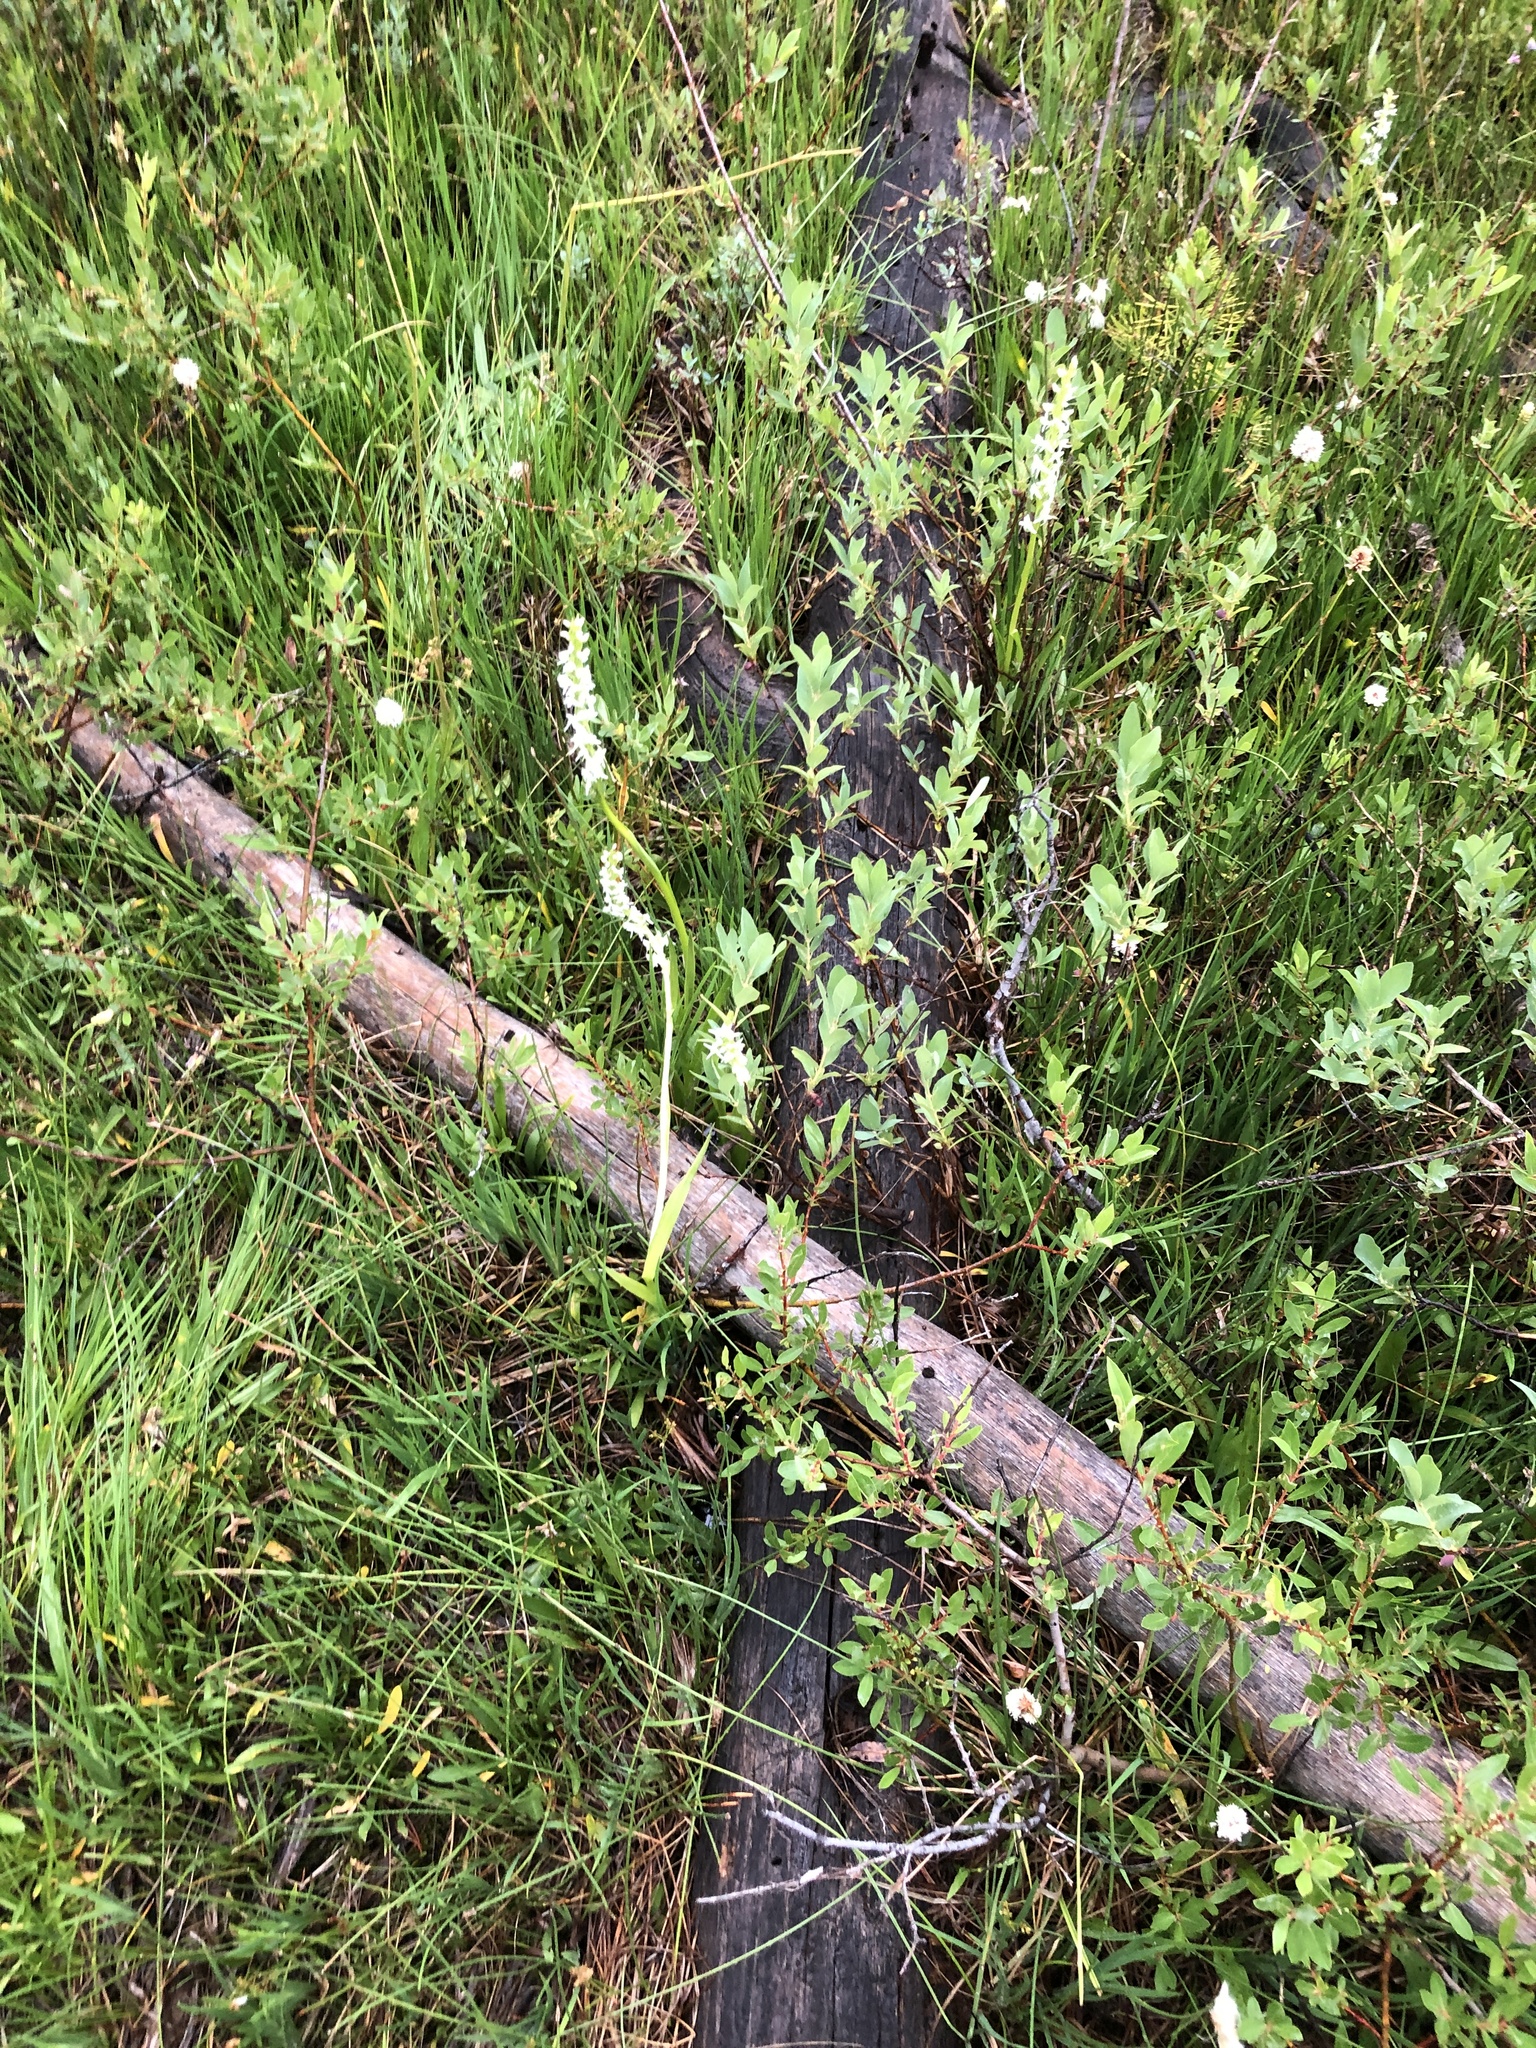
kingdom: Plantae
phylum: Tracheophyta
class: Liliopsida
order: Asparagales
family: Orchidaceae
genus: Platanthera
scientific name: Platanthera dilatata
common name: Bog candles
